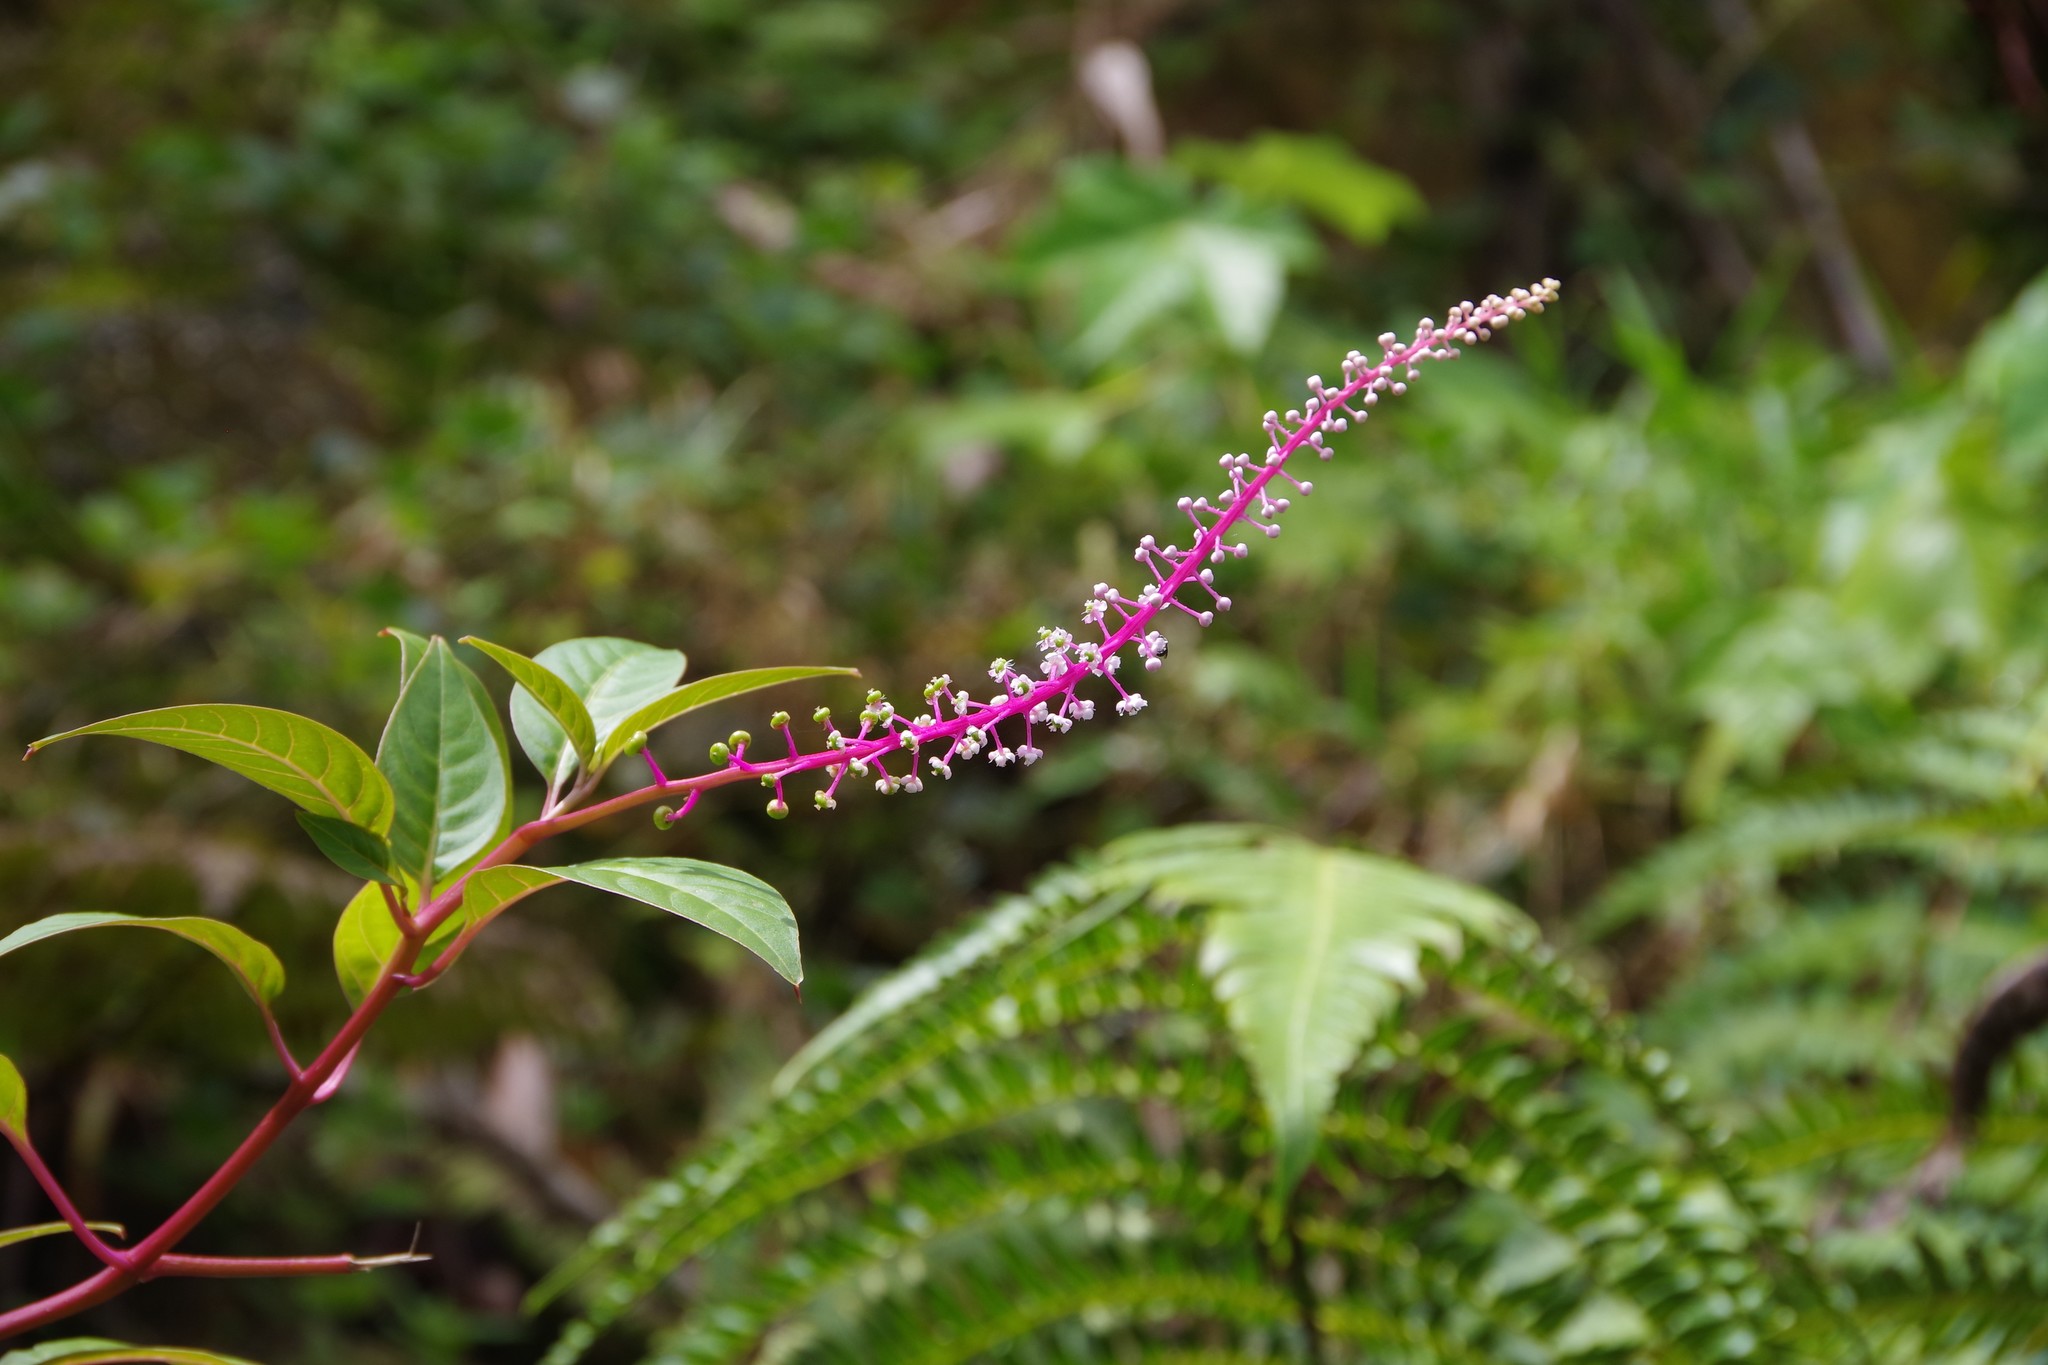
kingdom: Plantae
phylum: Tracheophyta
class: Magnoliopsida
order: Caryophyllales
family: Phytolaccaceae
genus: Phytolacca
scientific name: Phytolacca rivinoides
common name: Venezuelan pokeweed
